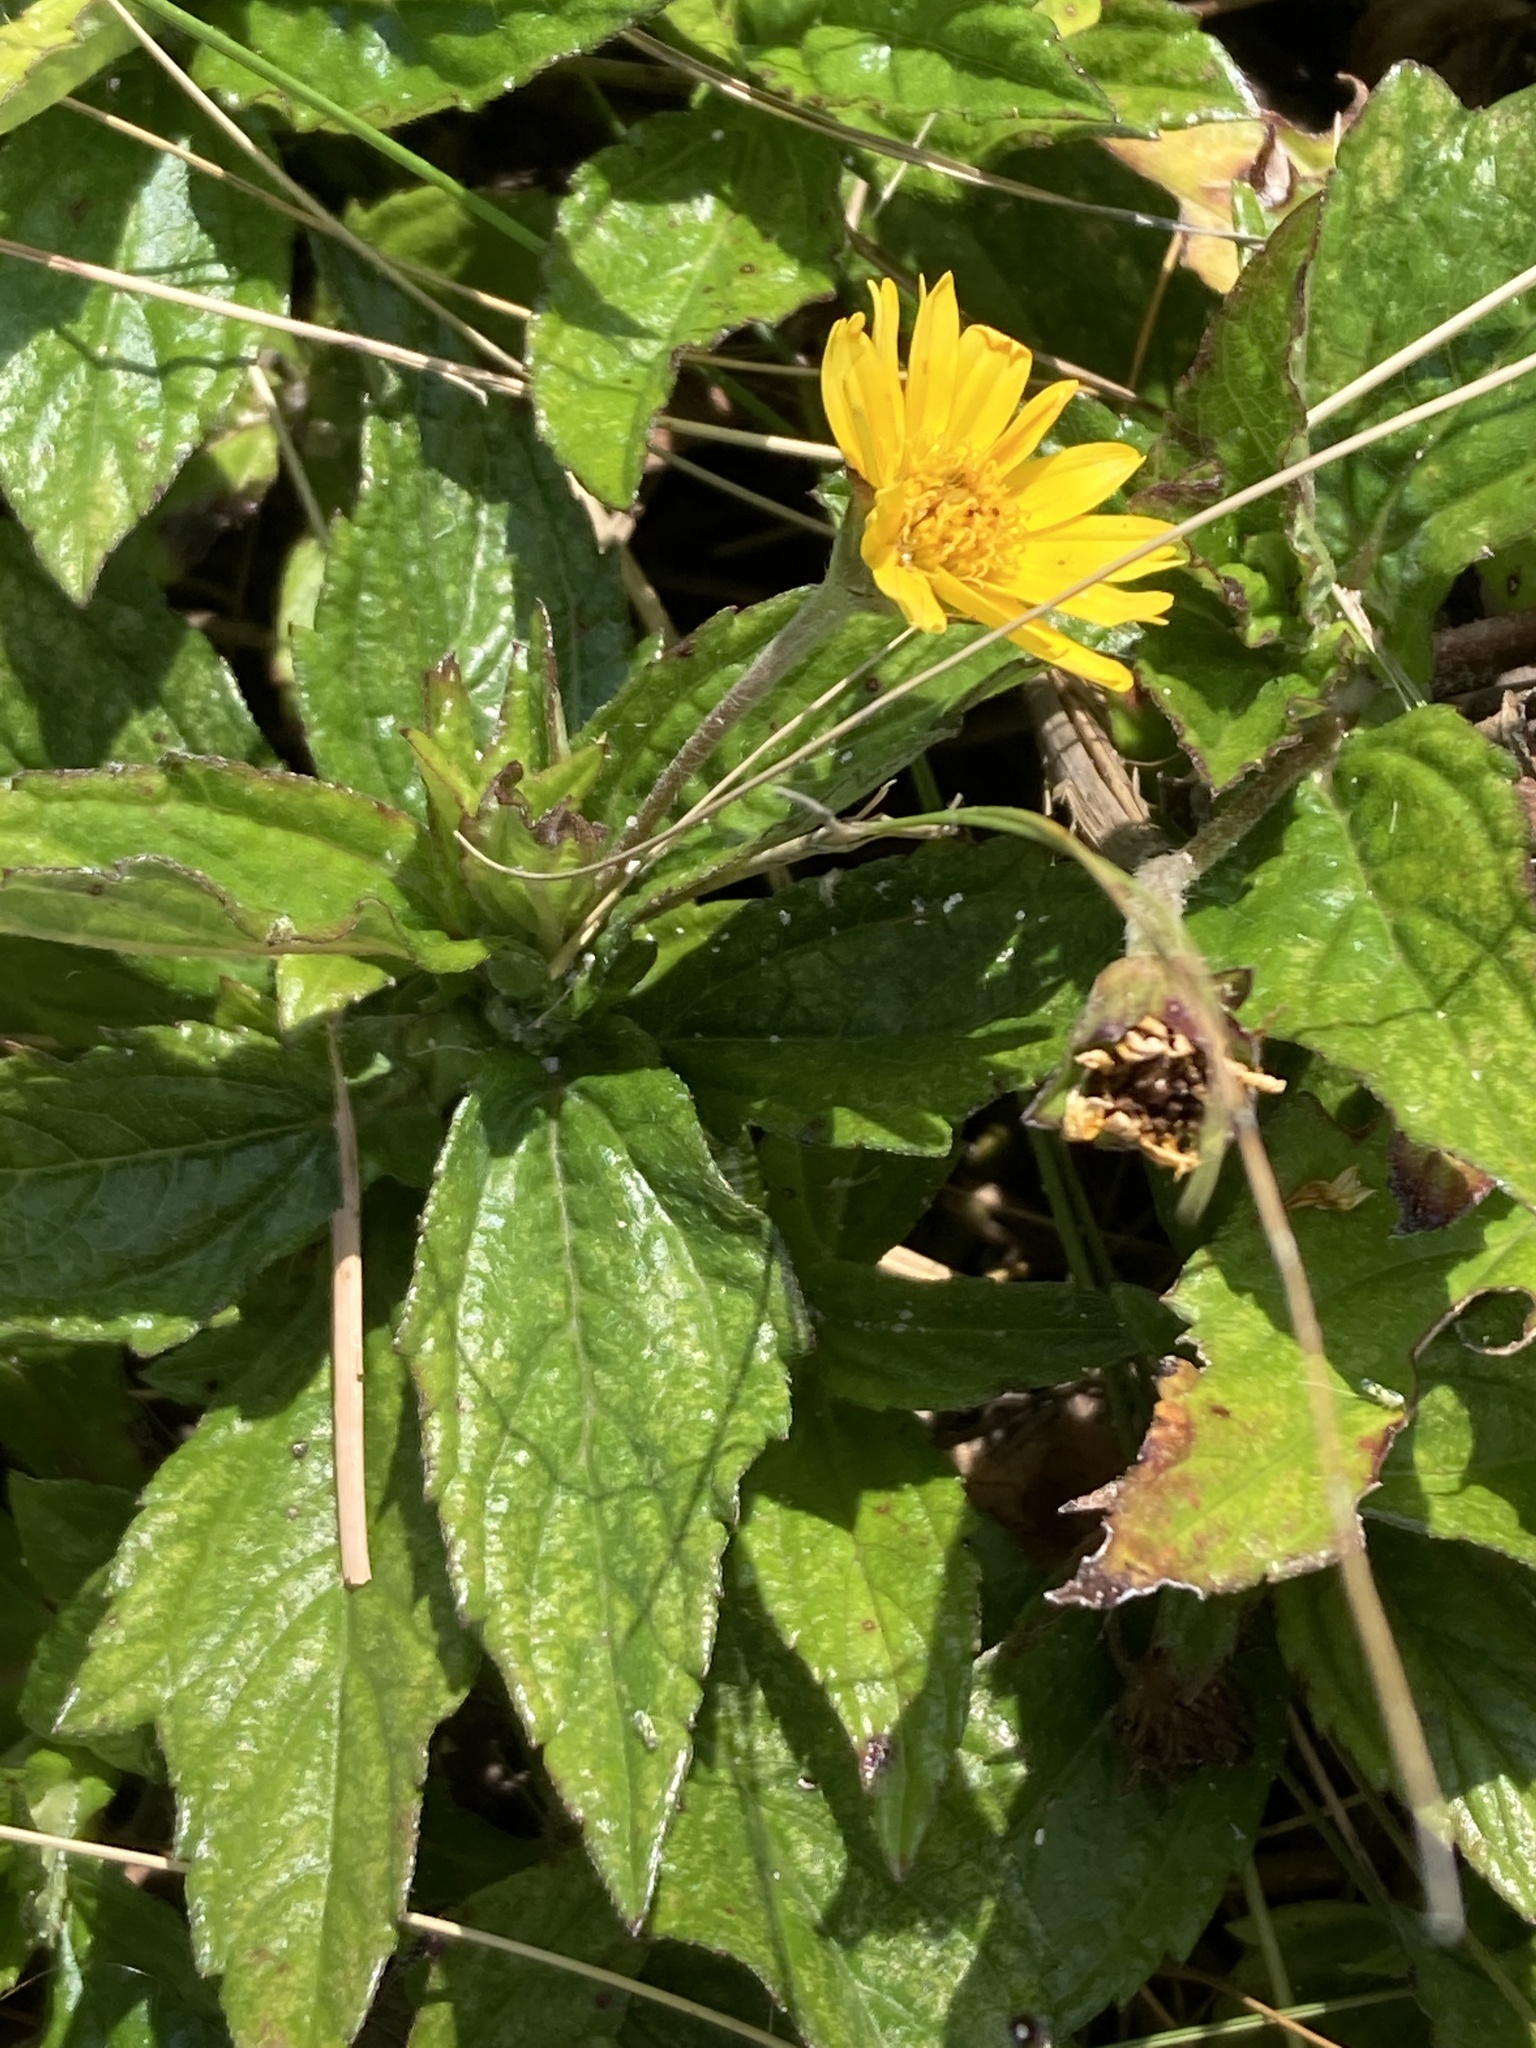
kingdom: Plantae
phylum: Tracheophyta
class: Magnoliopsida
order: Asterales
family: Asteraceae
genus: Sphagneticola
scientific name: Sphagneticola trilobata
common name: Bay biscayne creeping-oxeye
